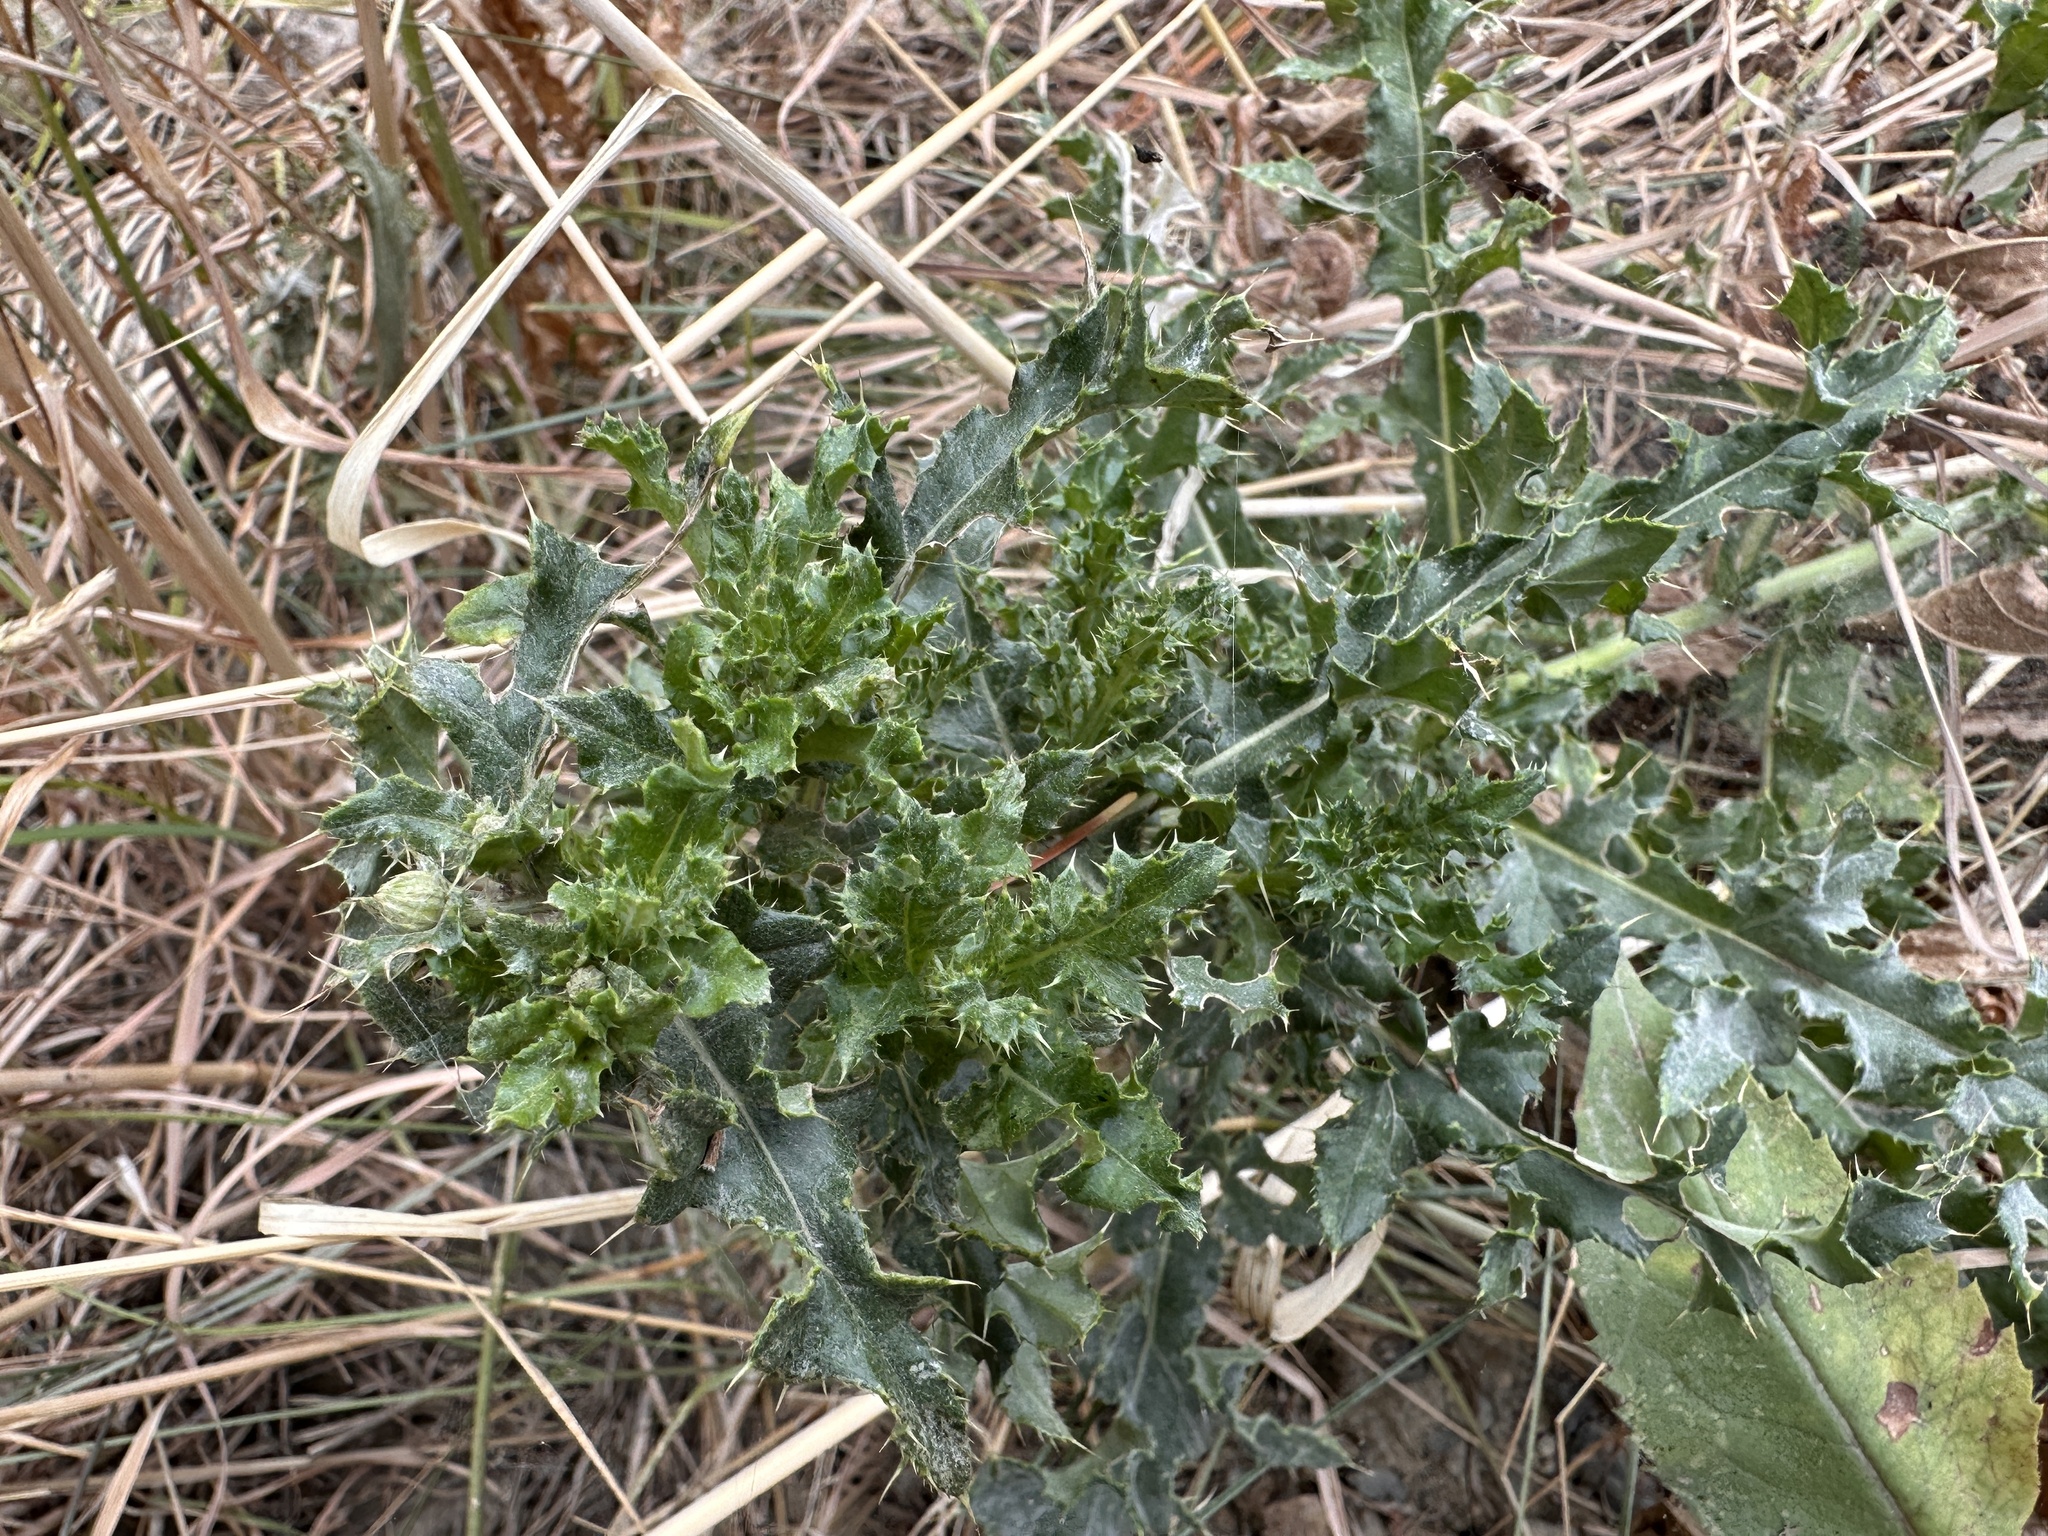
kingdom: Plantae
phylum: Tracheophyta
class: Magnoliopsida
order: Asterales
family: Asteraceae
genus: Cirsium
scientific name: Cirsium arvense
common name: Creeping thistle
